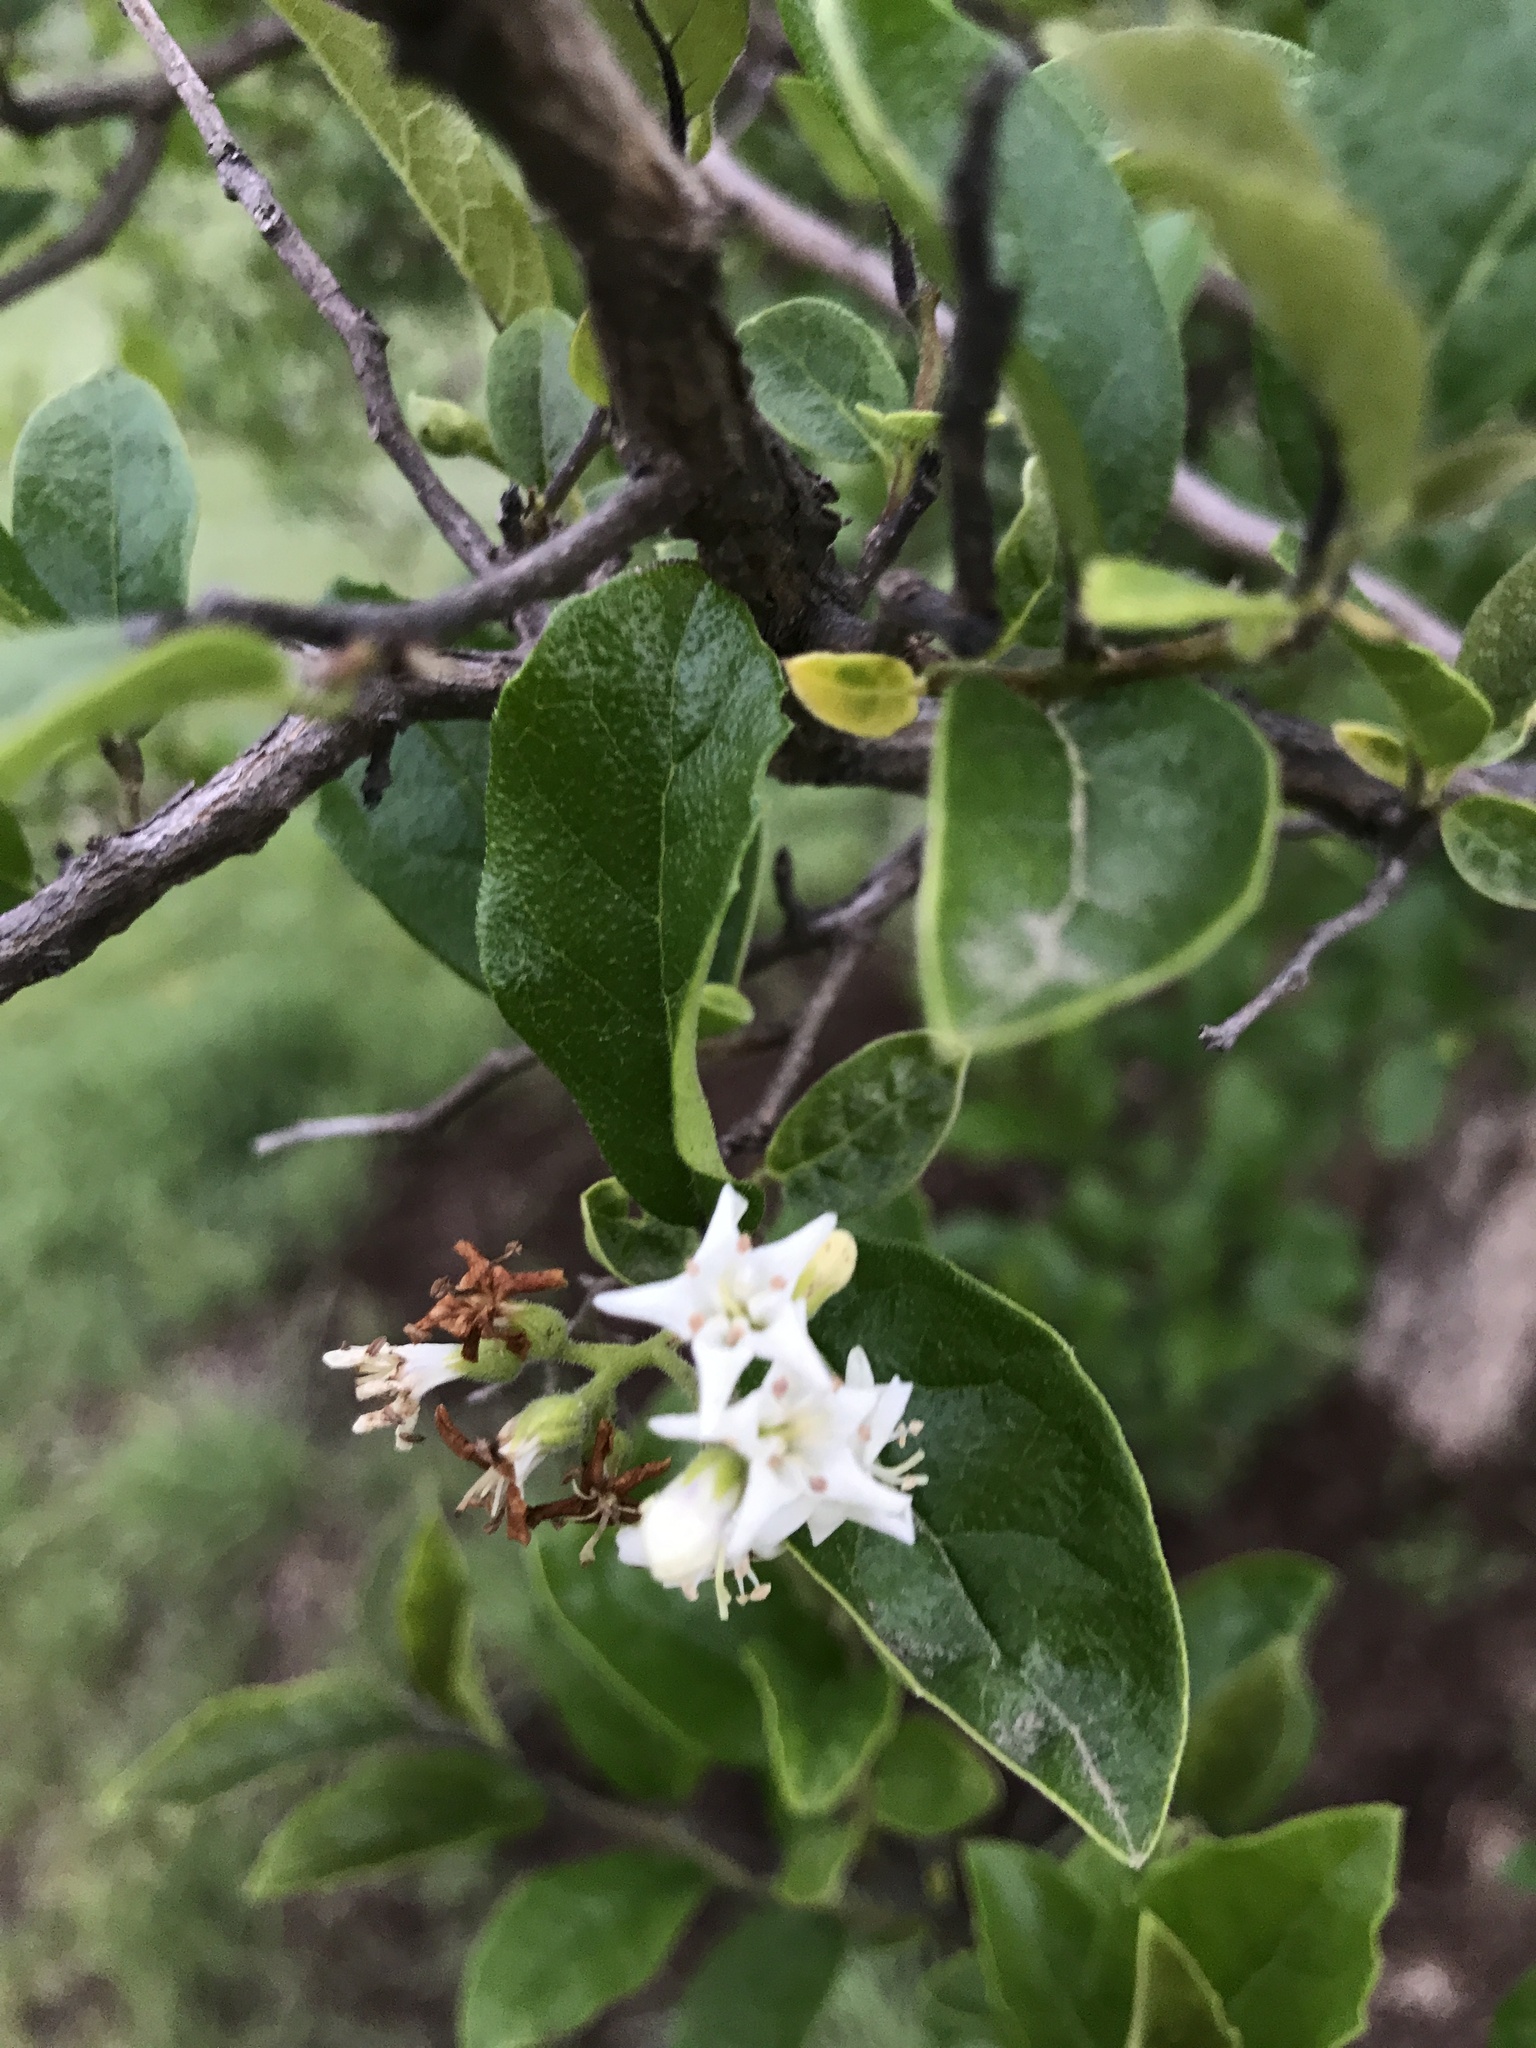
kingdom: Plantae
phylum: Tracheophyta
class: Magnoliopsida
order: Boraginales
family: Ehretiaceae
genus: Ehretia
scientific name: Ehretia anacua
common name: Sugarberry
